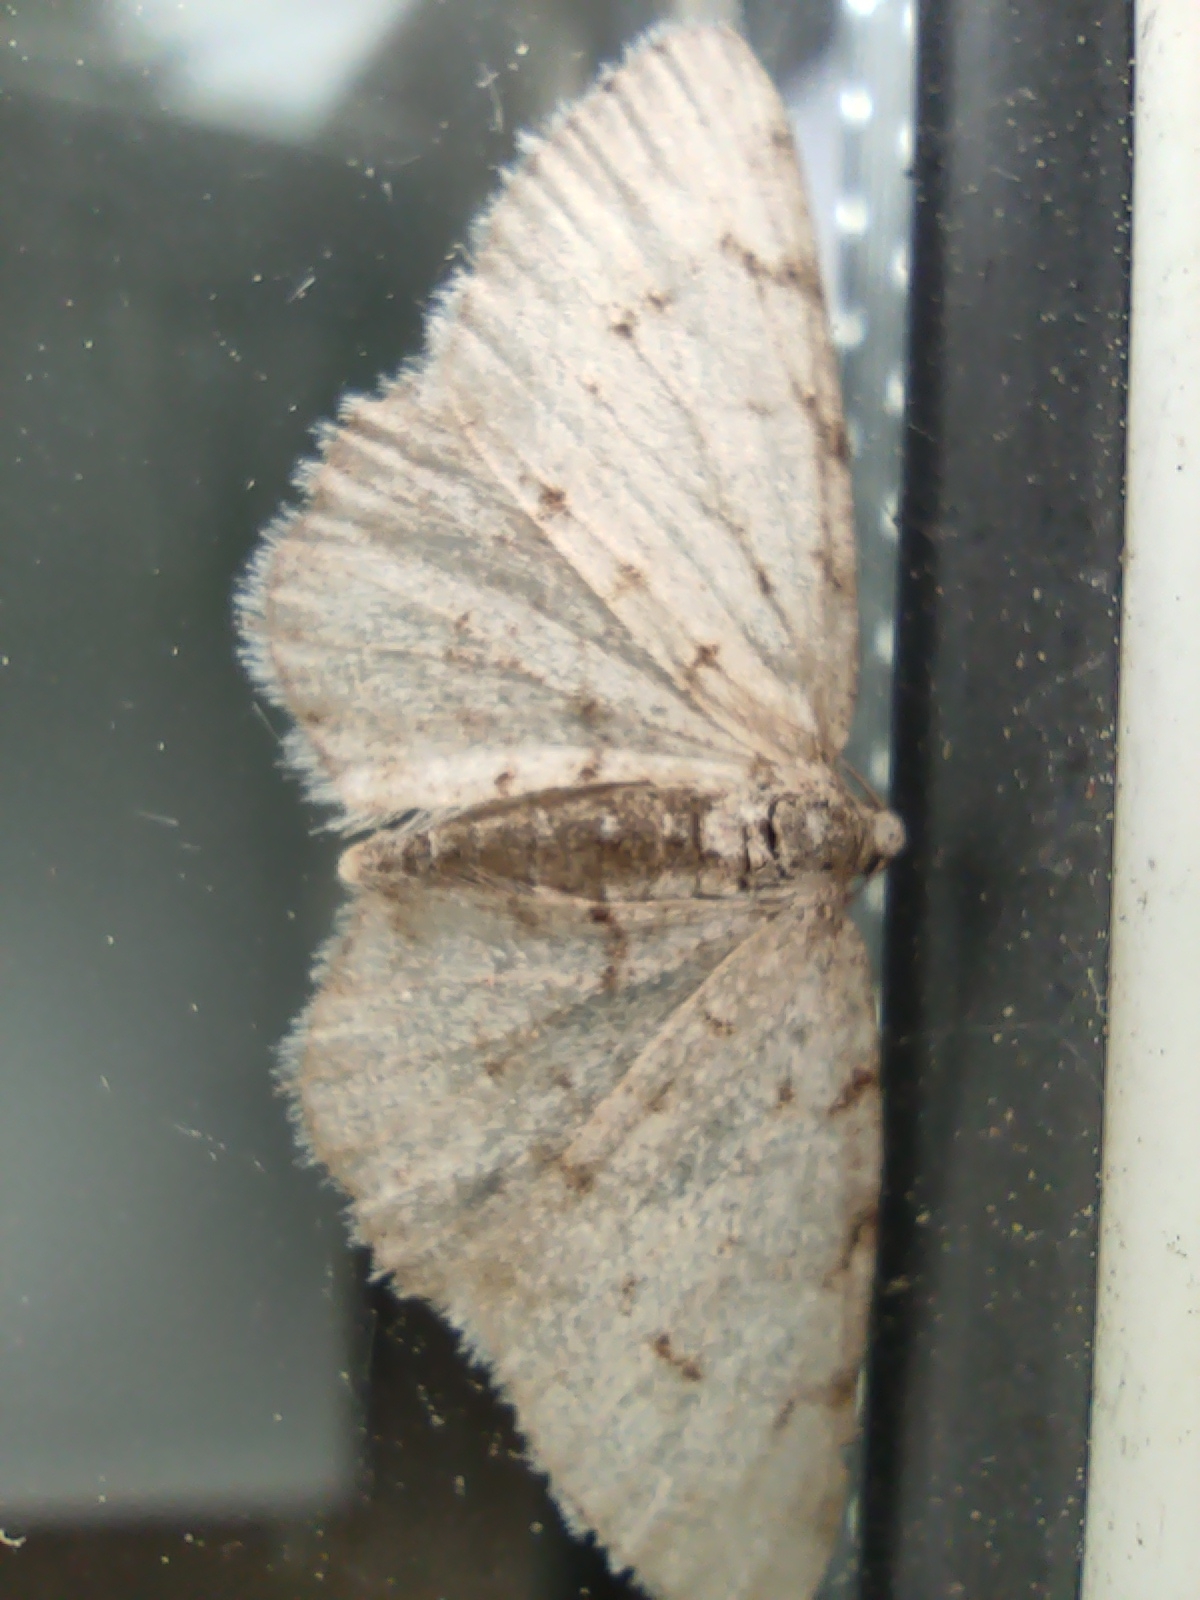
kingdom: Animalia
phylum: Arthropoda
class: Insecta
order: Lepidoptera
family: Geometridae
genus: Aethalura
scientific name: Aethalura punctulata
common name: Grey birch
